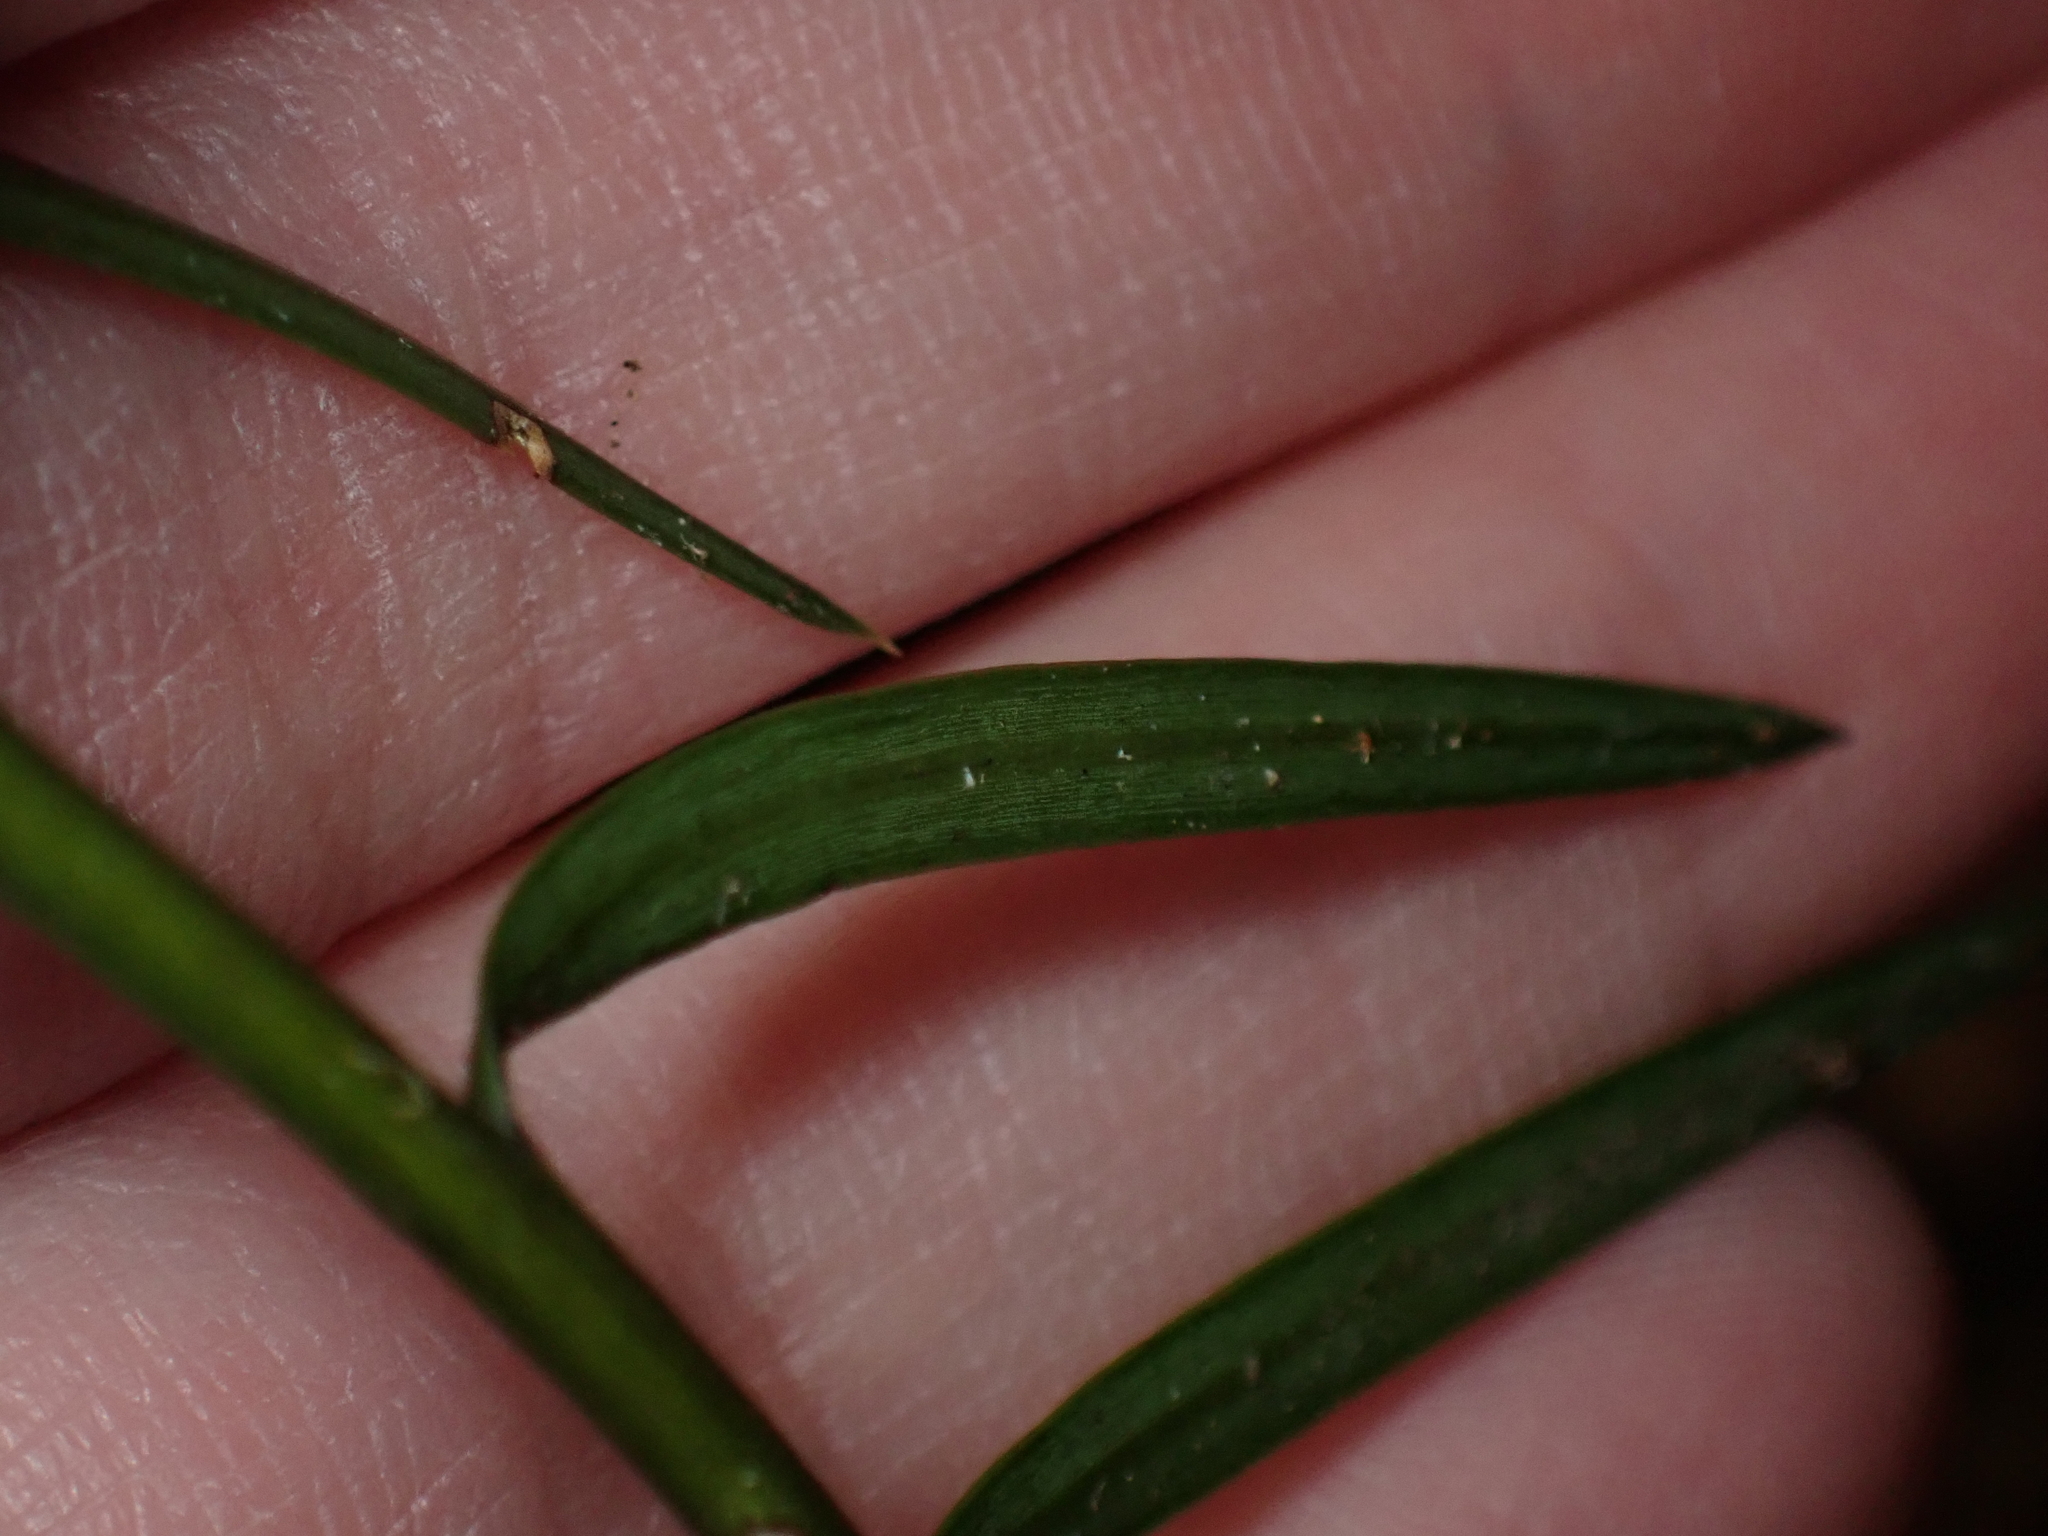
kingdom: Plantae
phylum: Tracheophyta
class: Pinopsida
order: Pinales
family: Podocarpaceae
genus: Podocarpus
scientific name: Podocarpus laetus
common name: Hall's totara
